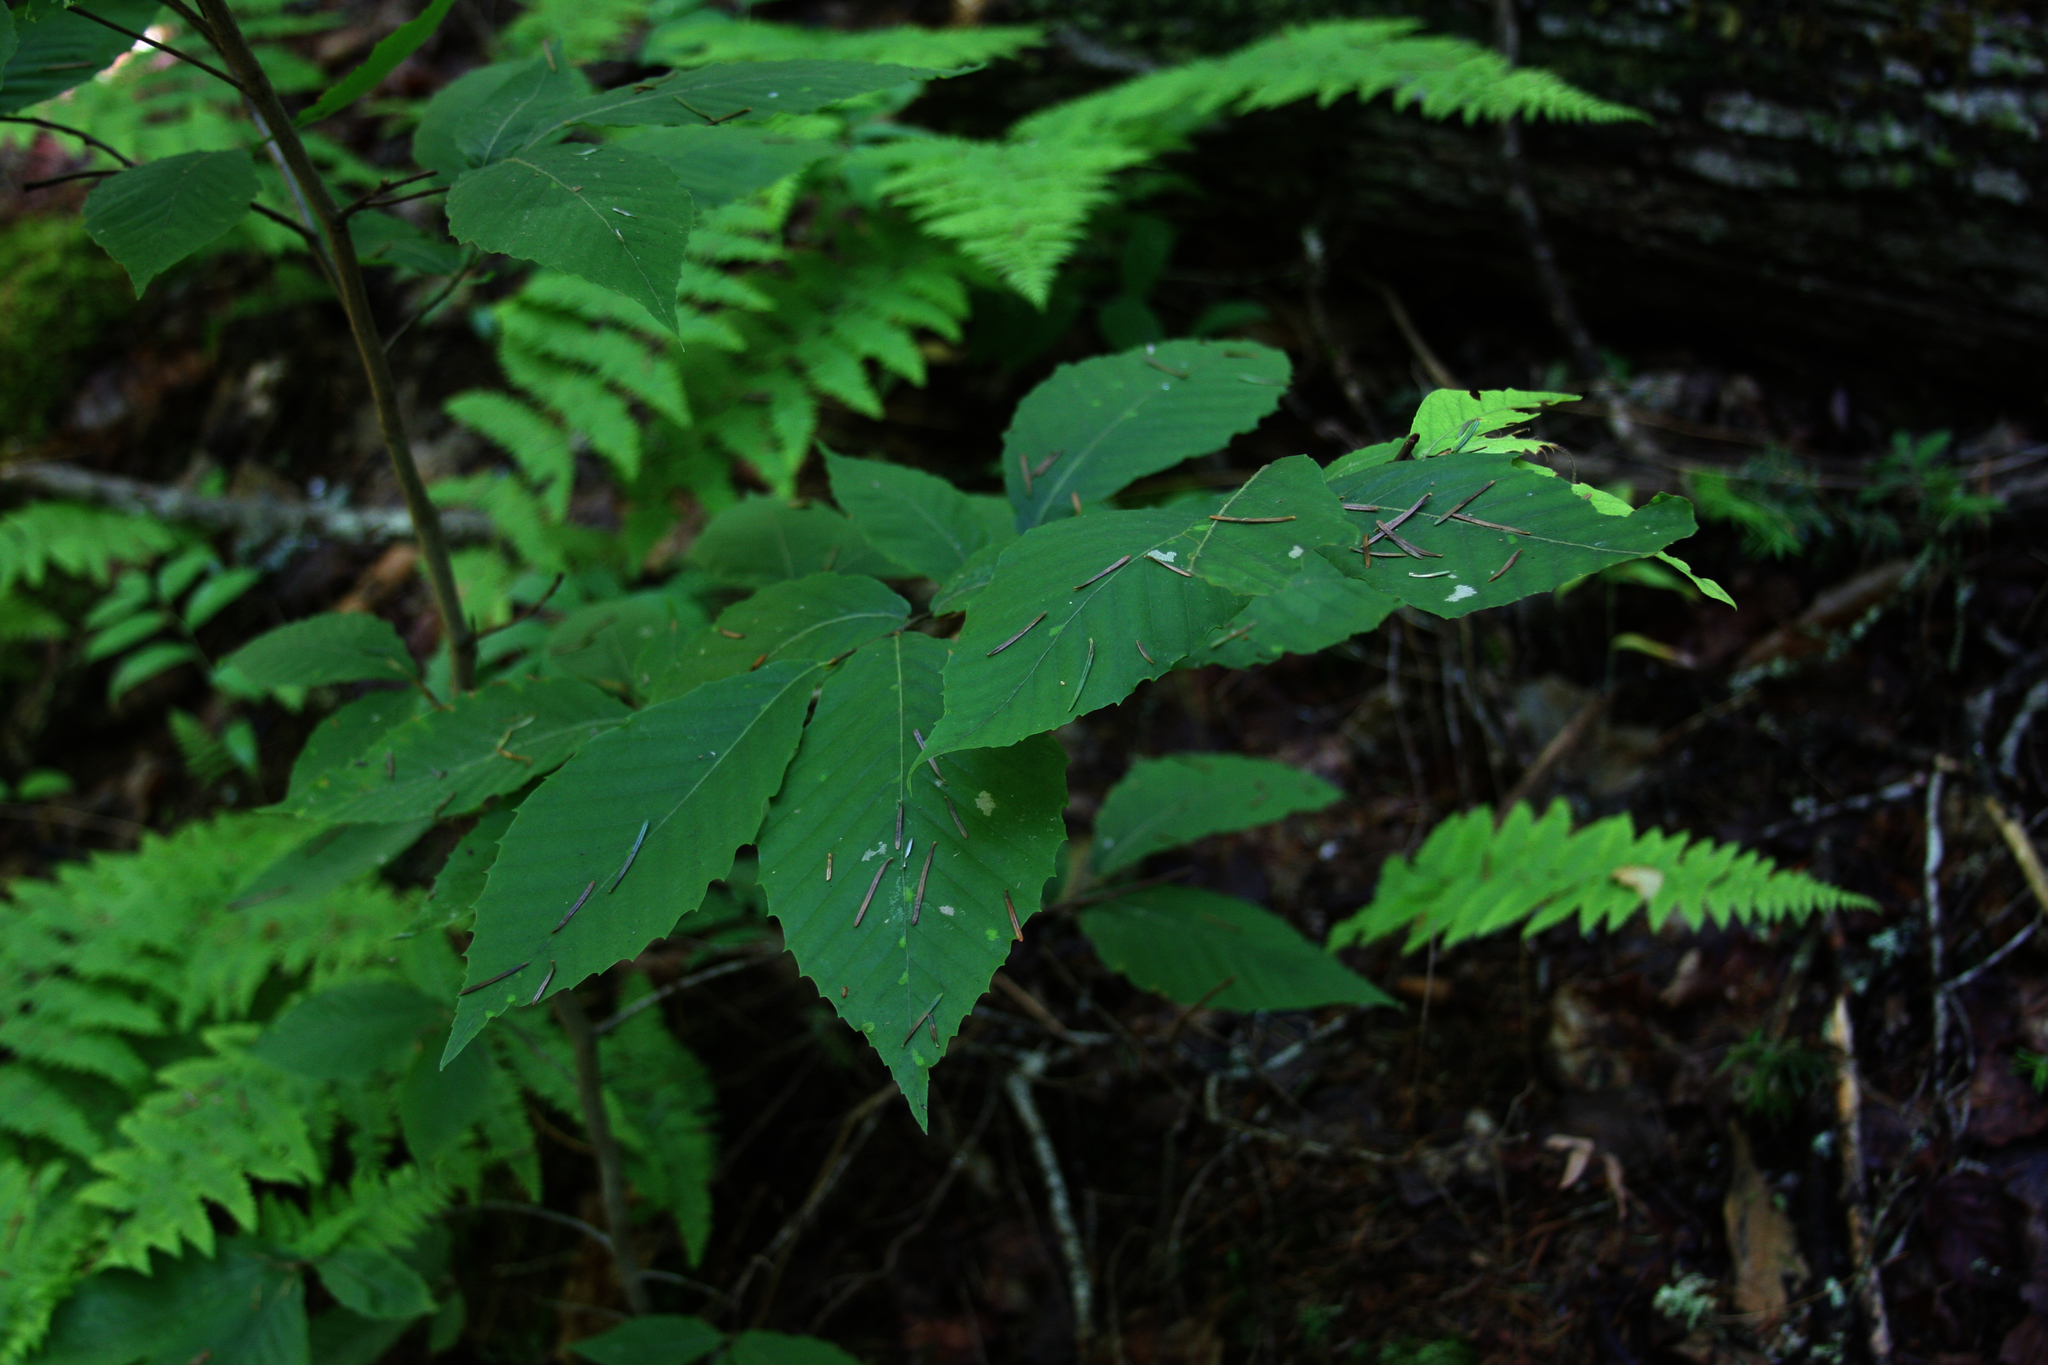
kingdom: Plantae
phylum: Tracheophyta
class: Magnoliopsida
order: Fagales
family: Fagaceae
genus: Fagus
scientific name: Fagus grandifolia
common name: American beech
